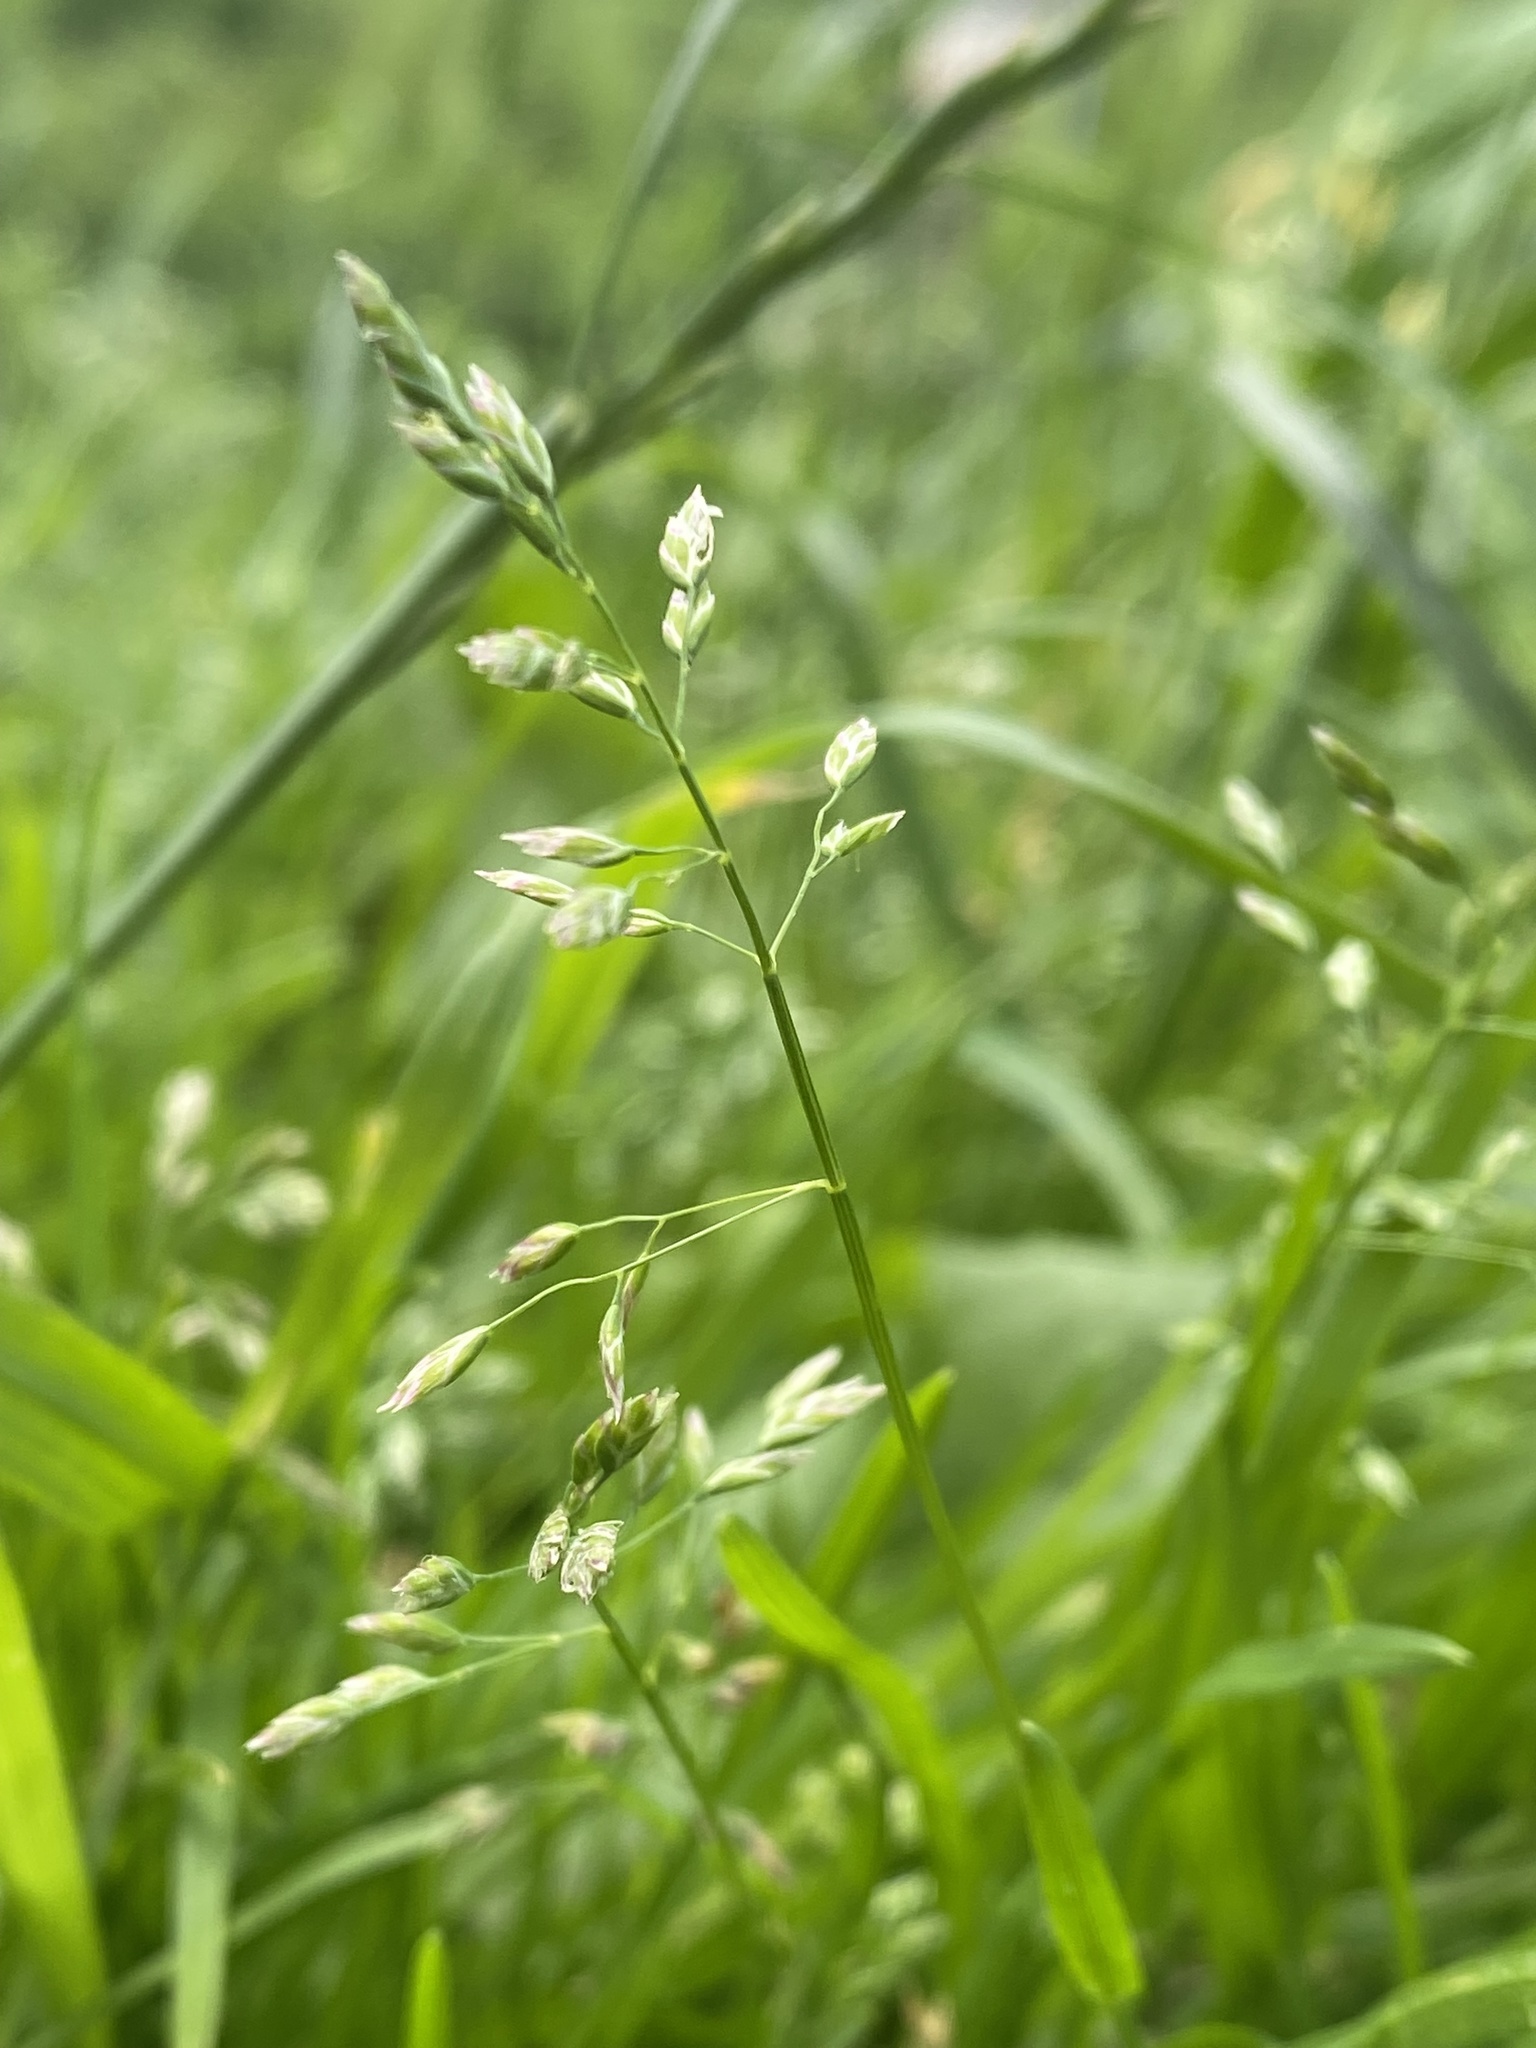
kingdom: Plantae
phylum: Tracheophyta
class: Liliopsida
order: Poales
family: Poaceae
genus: Poa
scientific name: Poa annua
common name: Annual bluegrass
